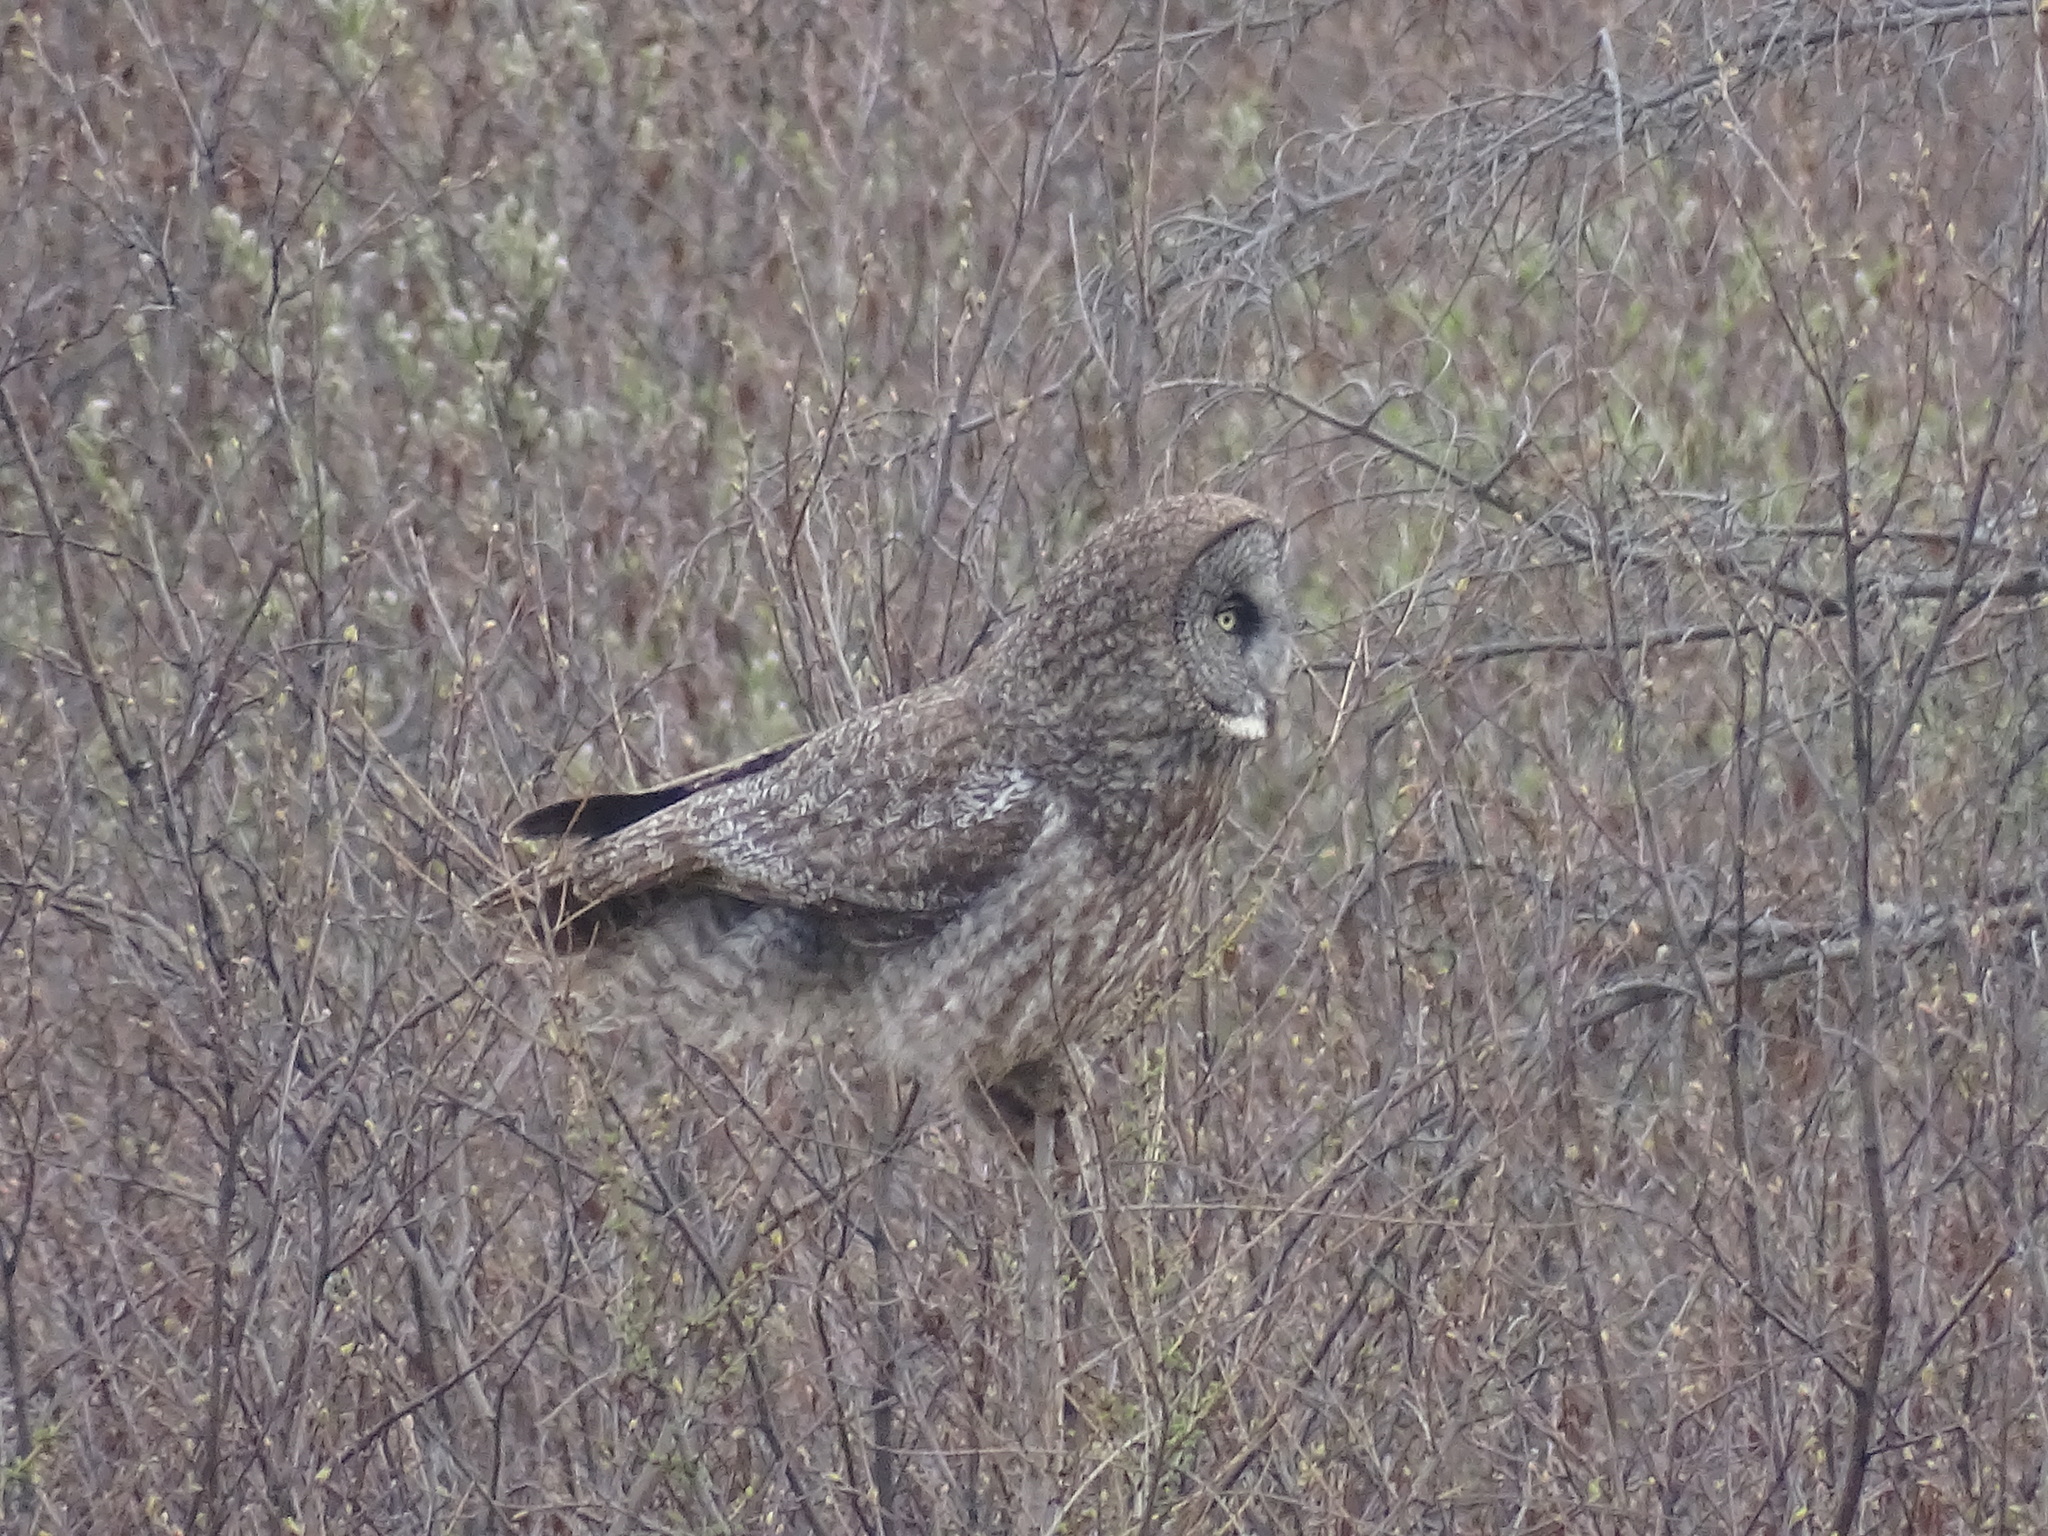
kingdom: Animalia
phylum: Chordata
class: Aves
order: Strigiformes
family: Strigidae
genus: Strix
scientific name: Strix nebulosa
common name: Great grey owl
